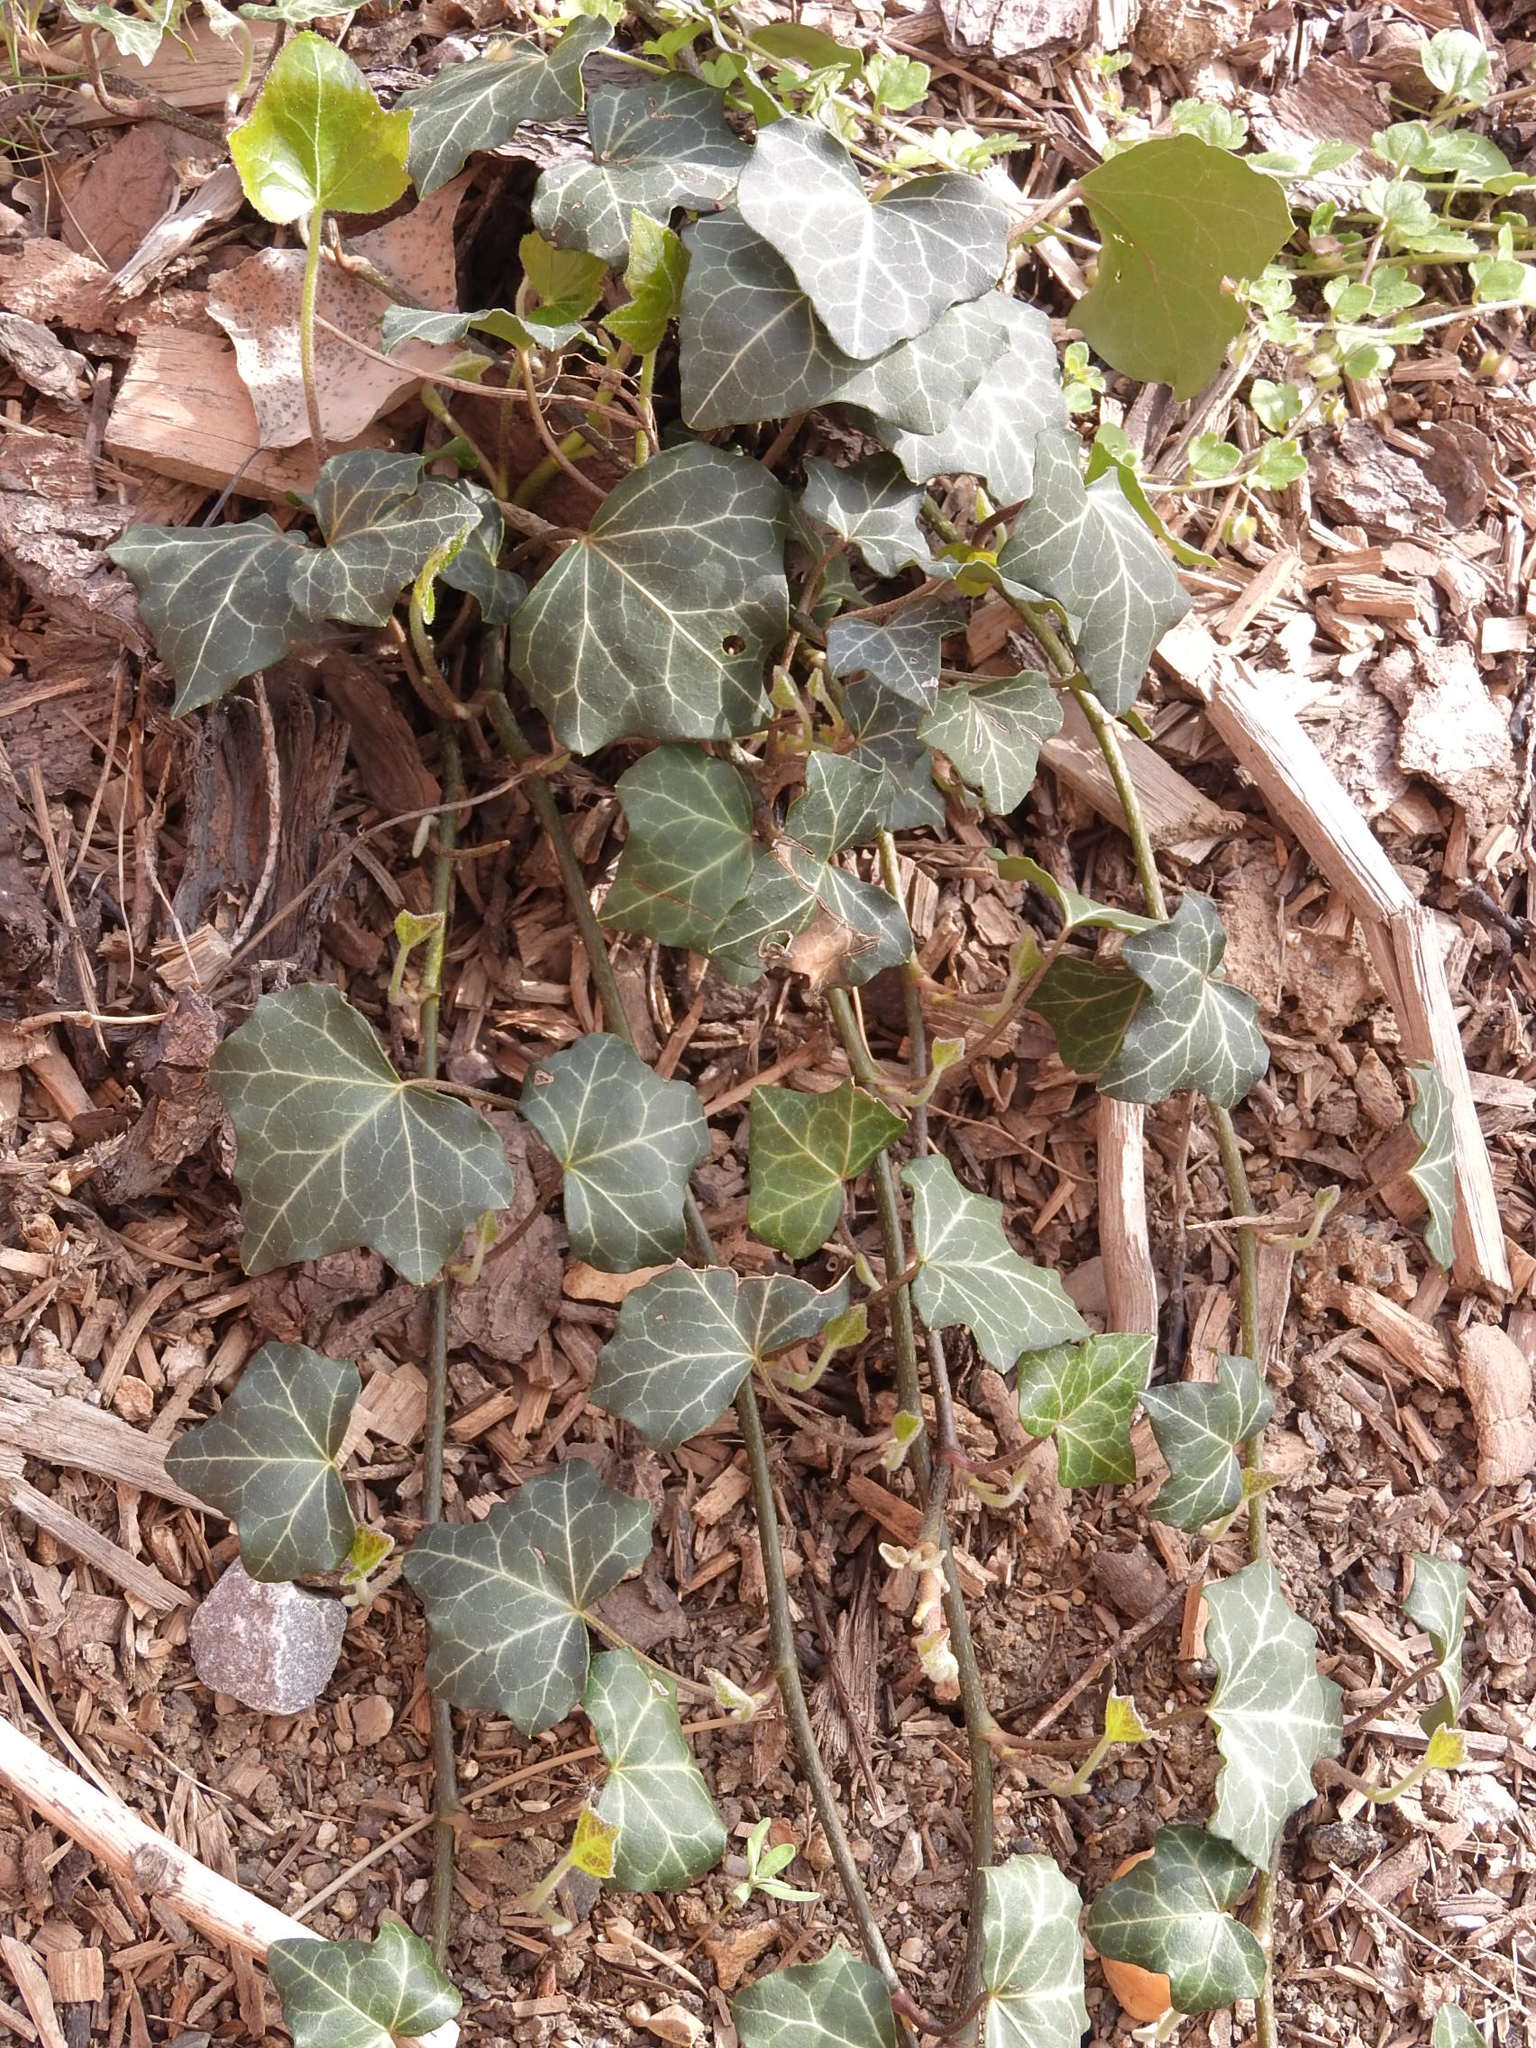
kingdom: Plantae
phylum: Tracheophyta
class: Magnoliopsida
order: Apiales
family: Araliaceae
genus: Hedera
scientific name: Hedera helix
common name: Ivy
